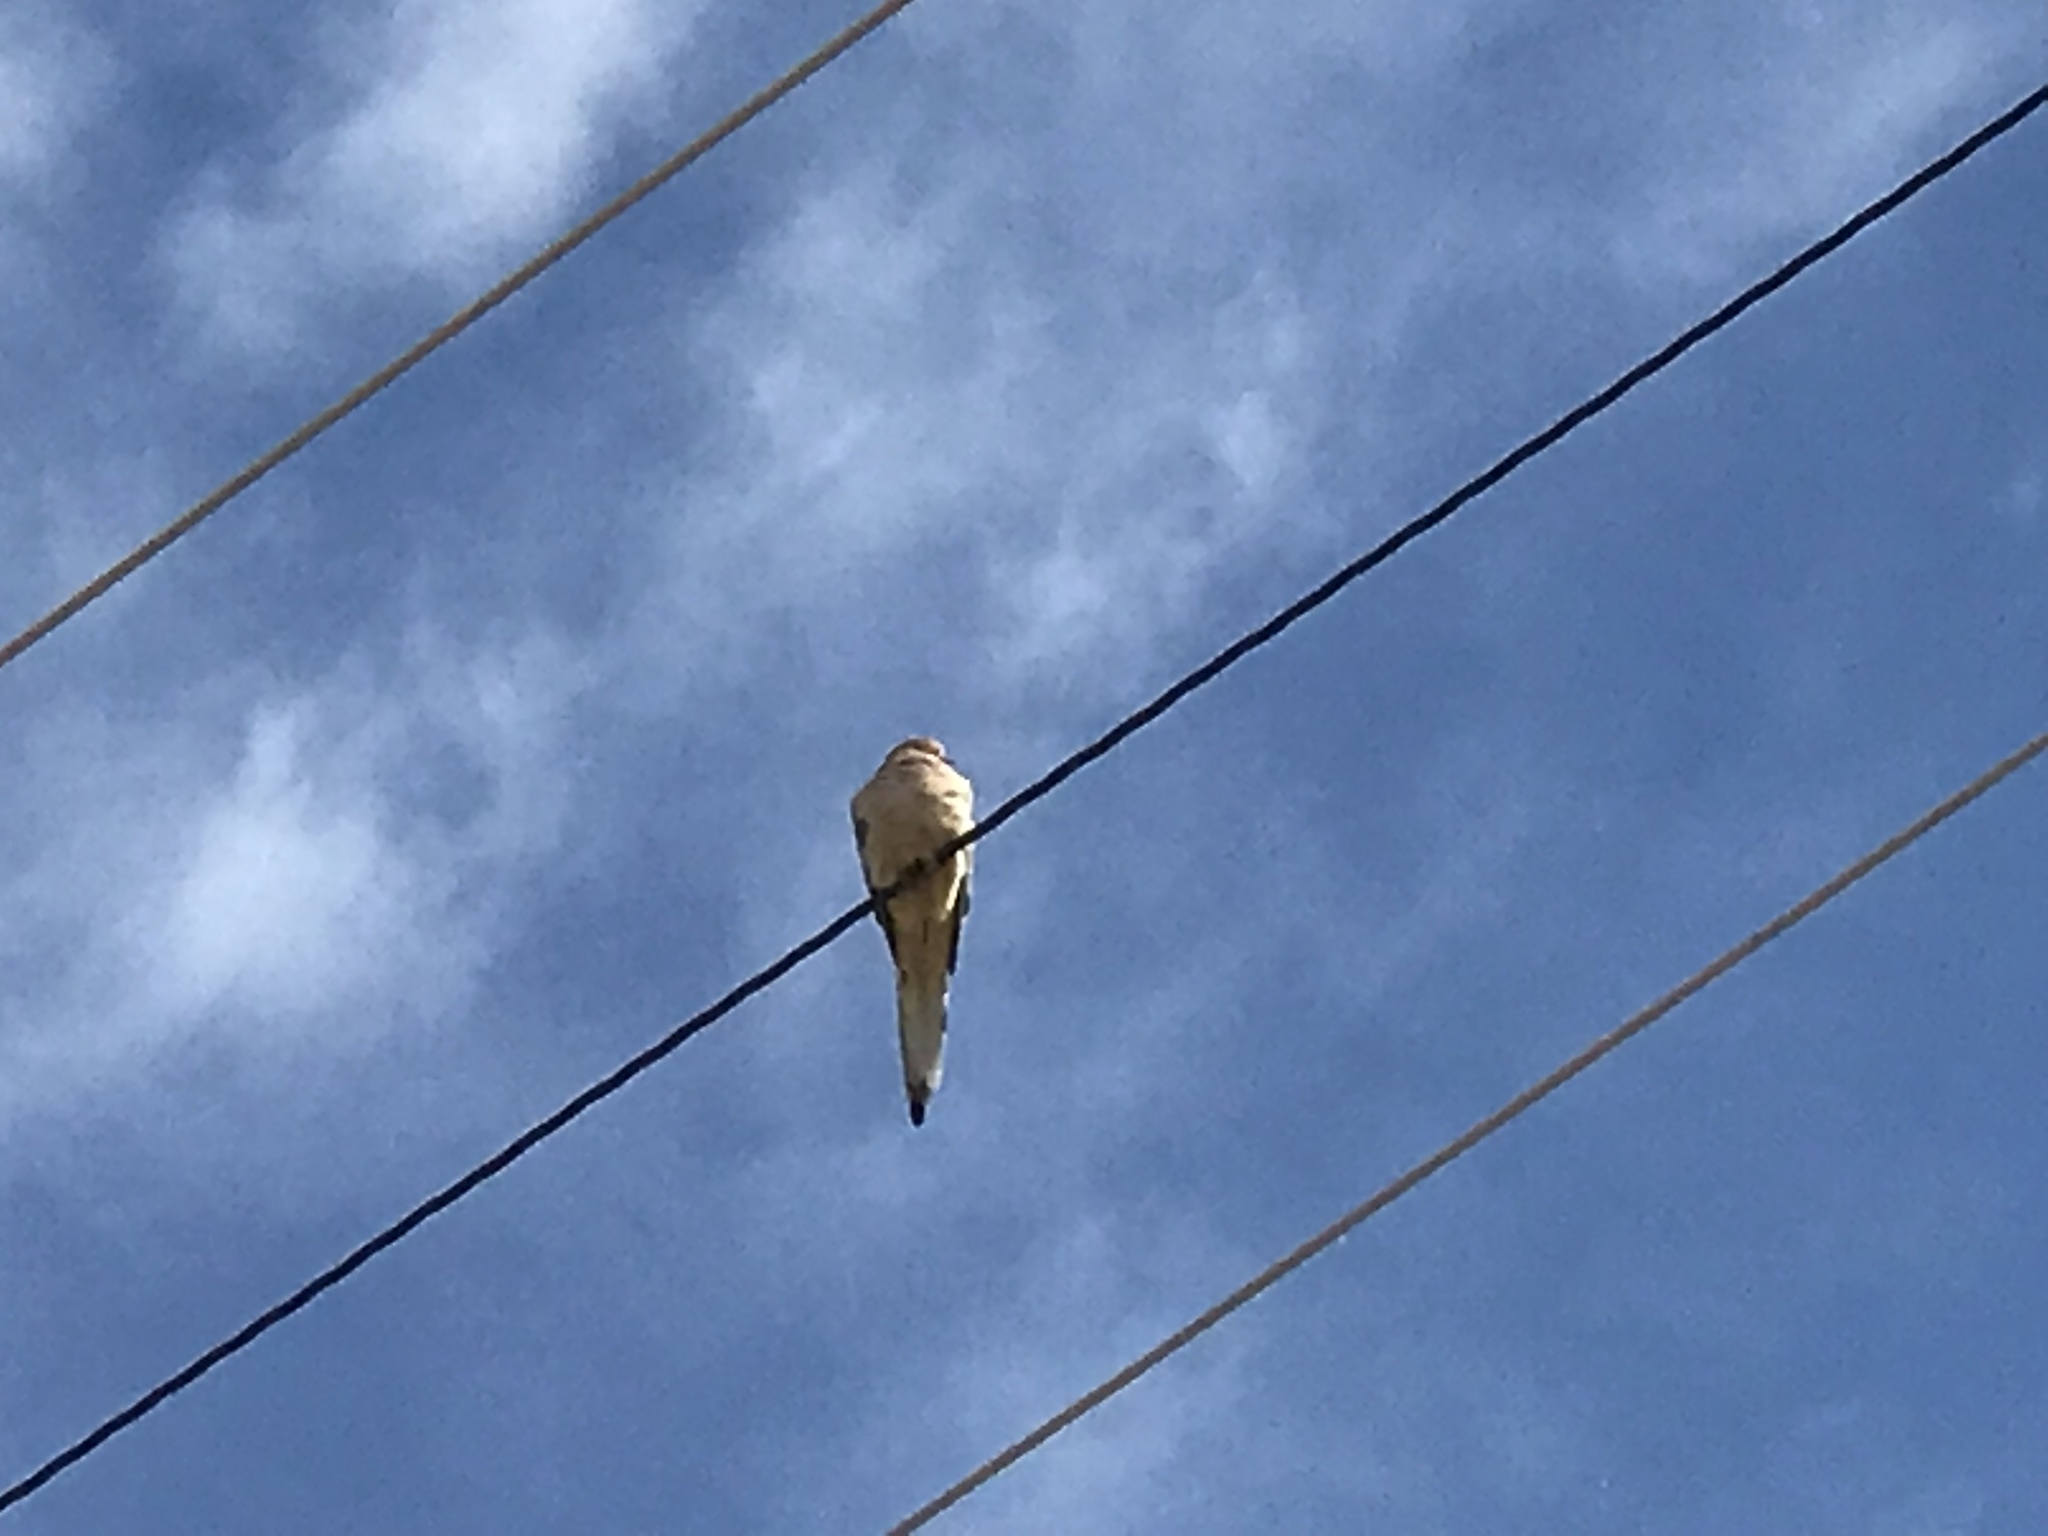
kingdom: Animalia
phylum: Chordata
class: Aves
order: Columbiformes
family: Columbidae
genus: Zenaida
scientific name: Zenaida macroura
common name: Mourning dove
